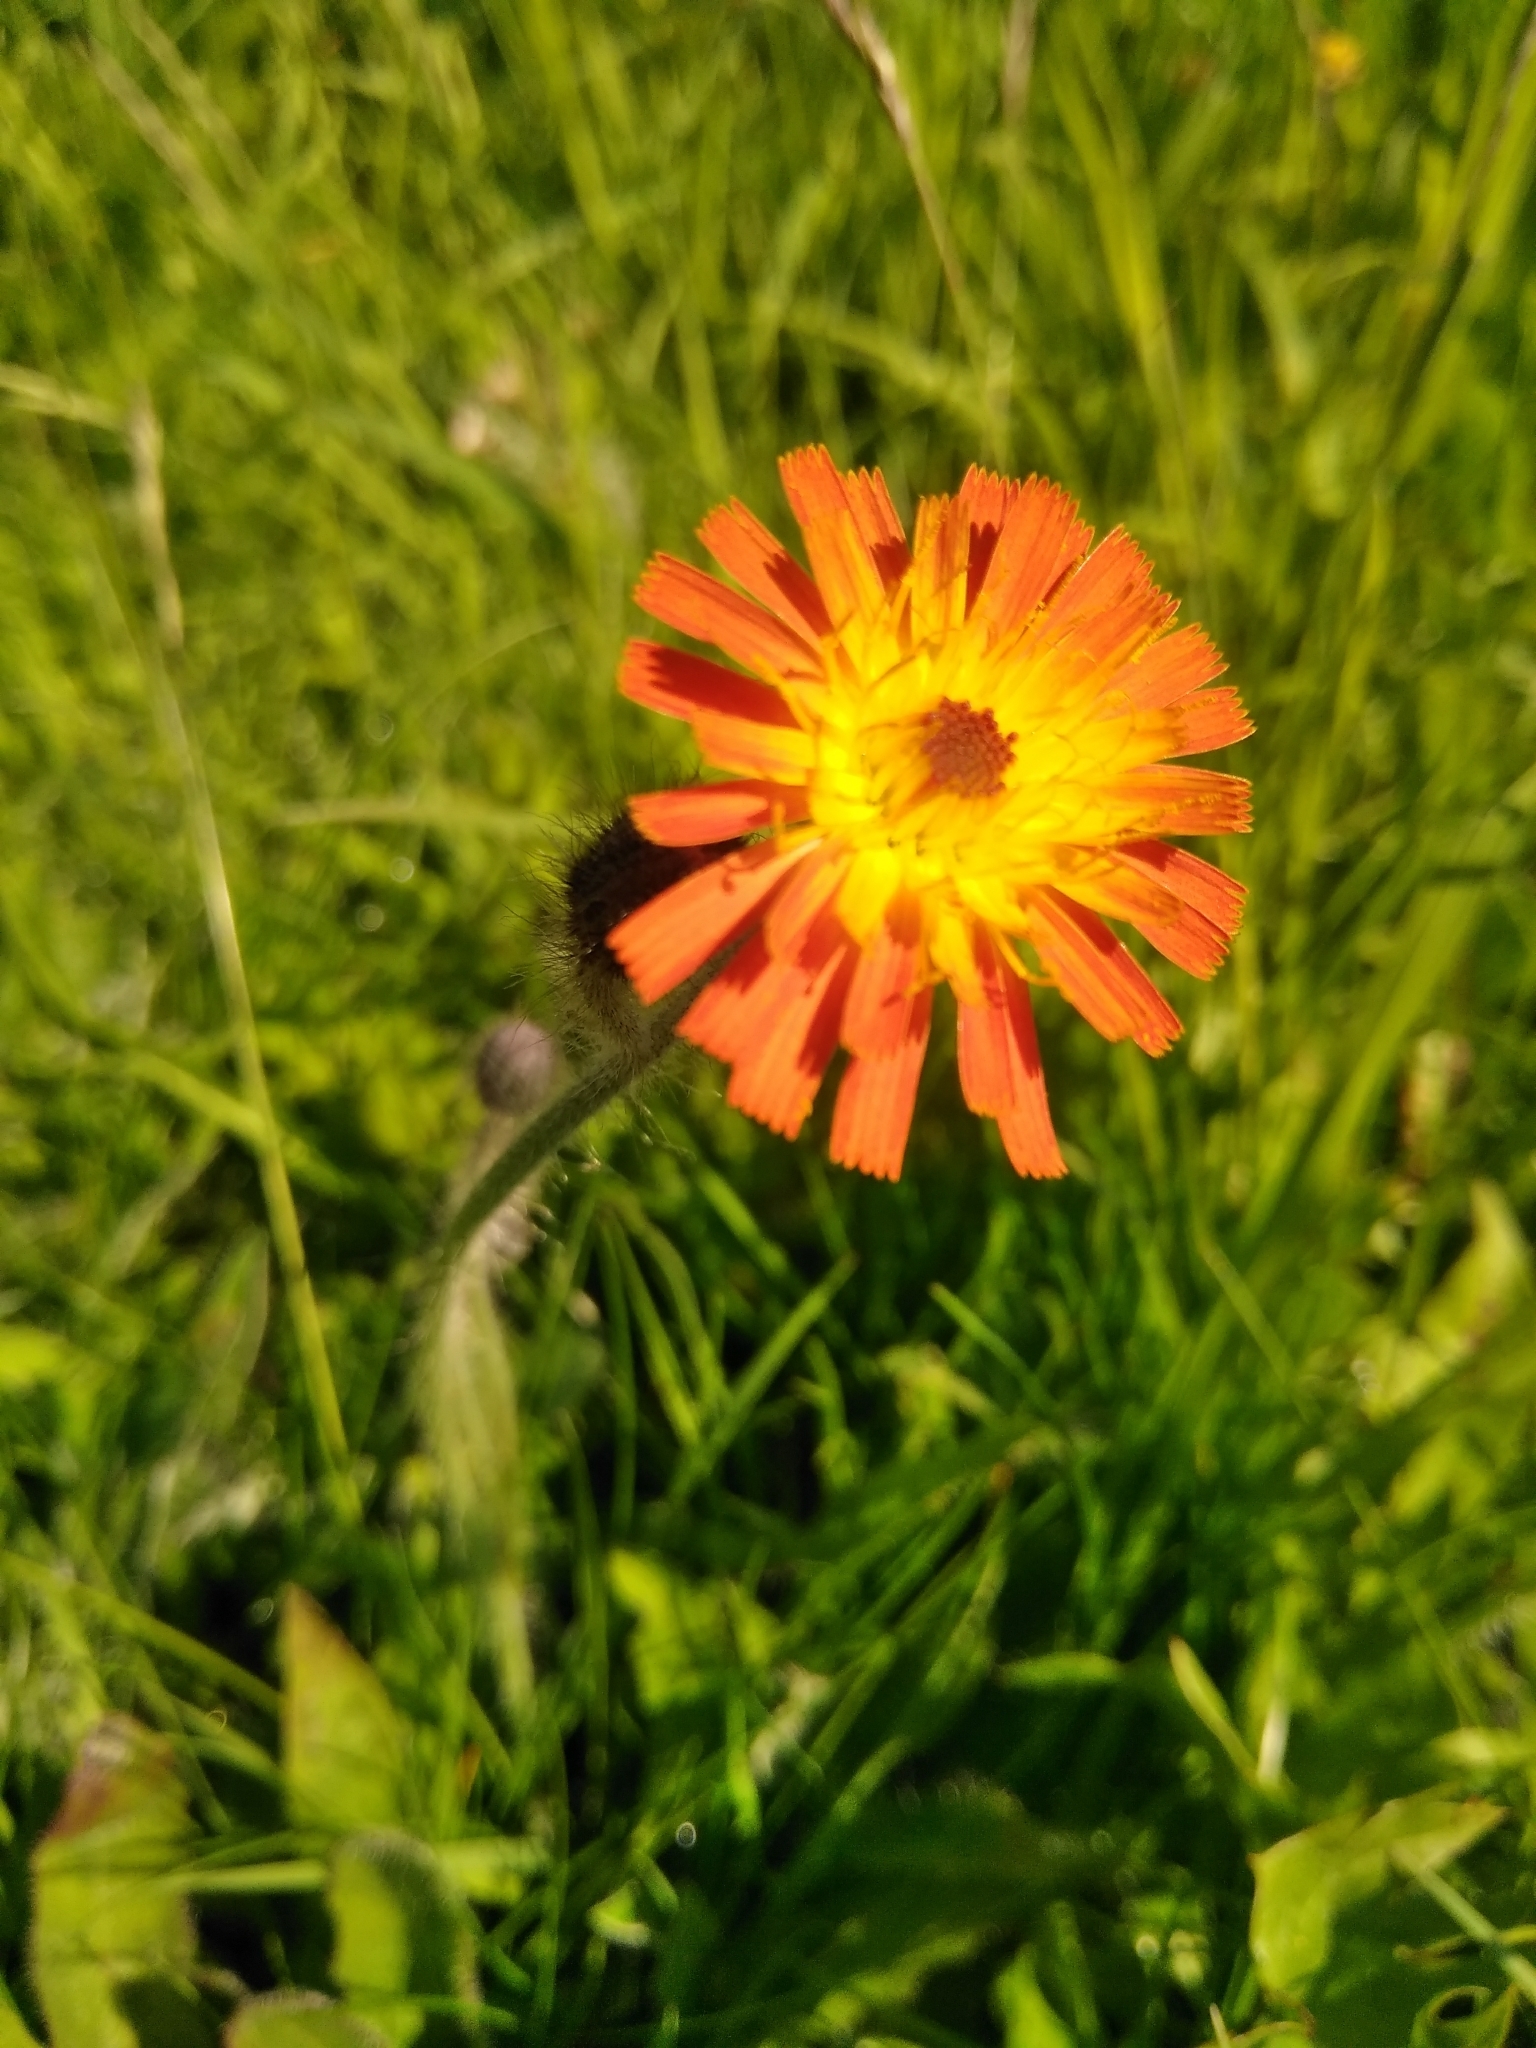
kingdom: Plantae
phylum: Tracheophyta
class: Magnoliopsida
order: Asterales
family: Asteraceae
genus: Pilosella
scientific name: Pilosella aurantiaca
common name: Fox-and-cubs
